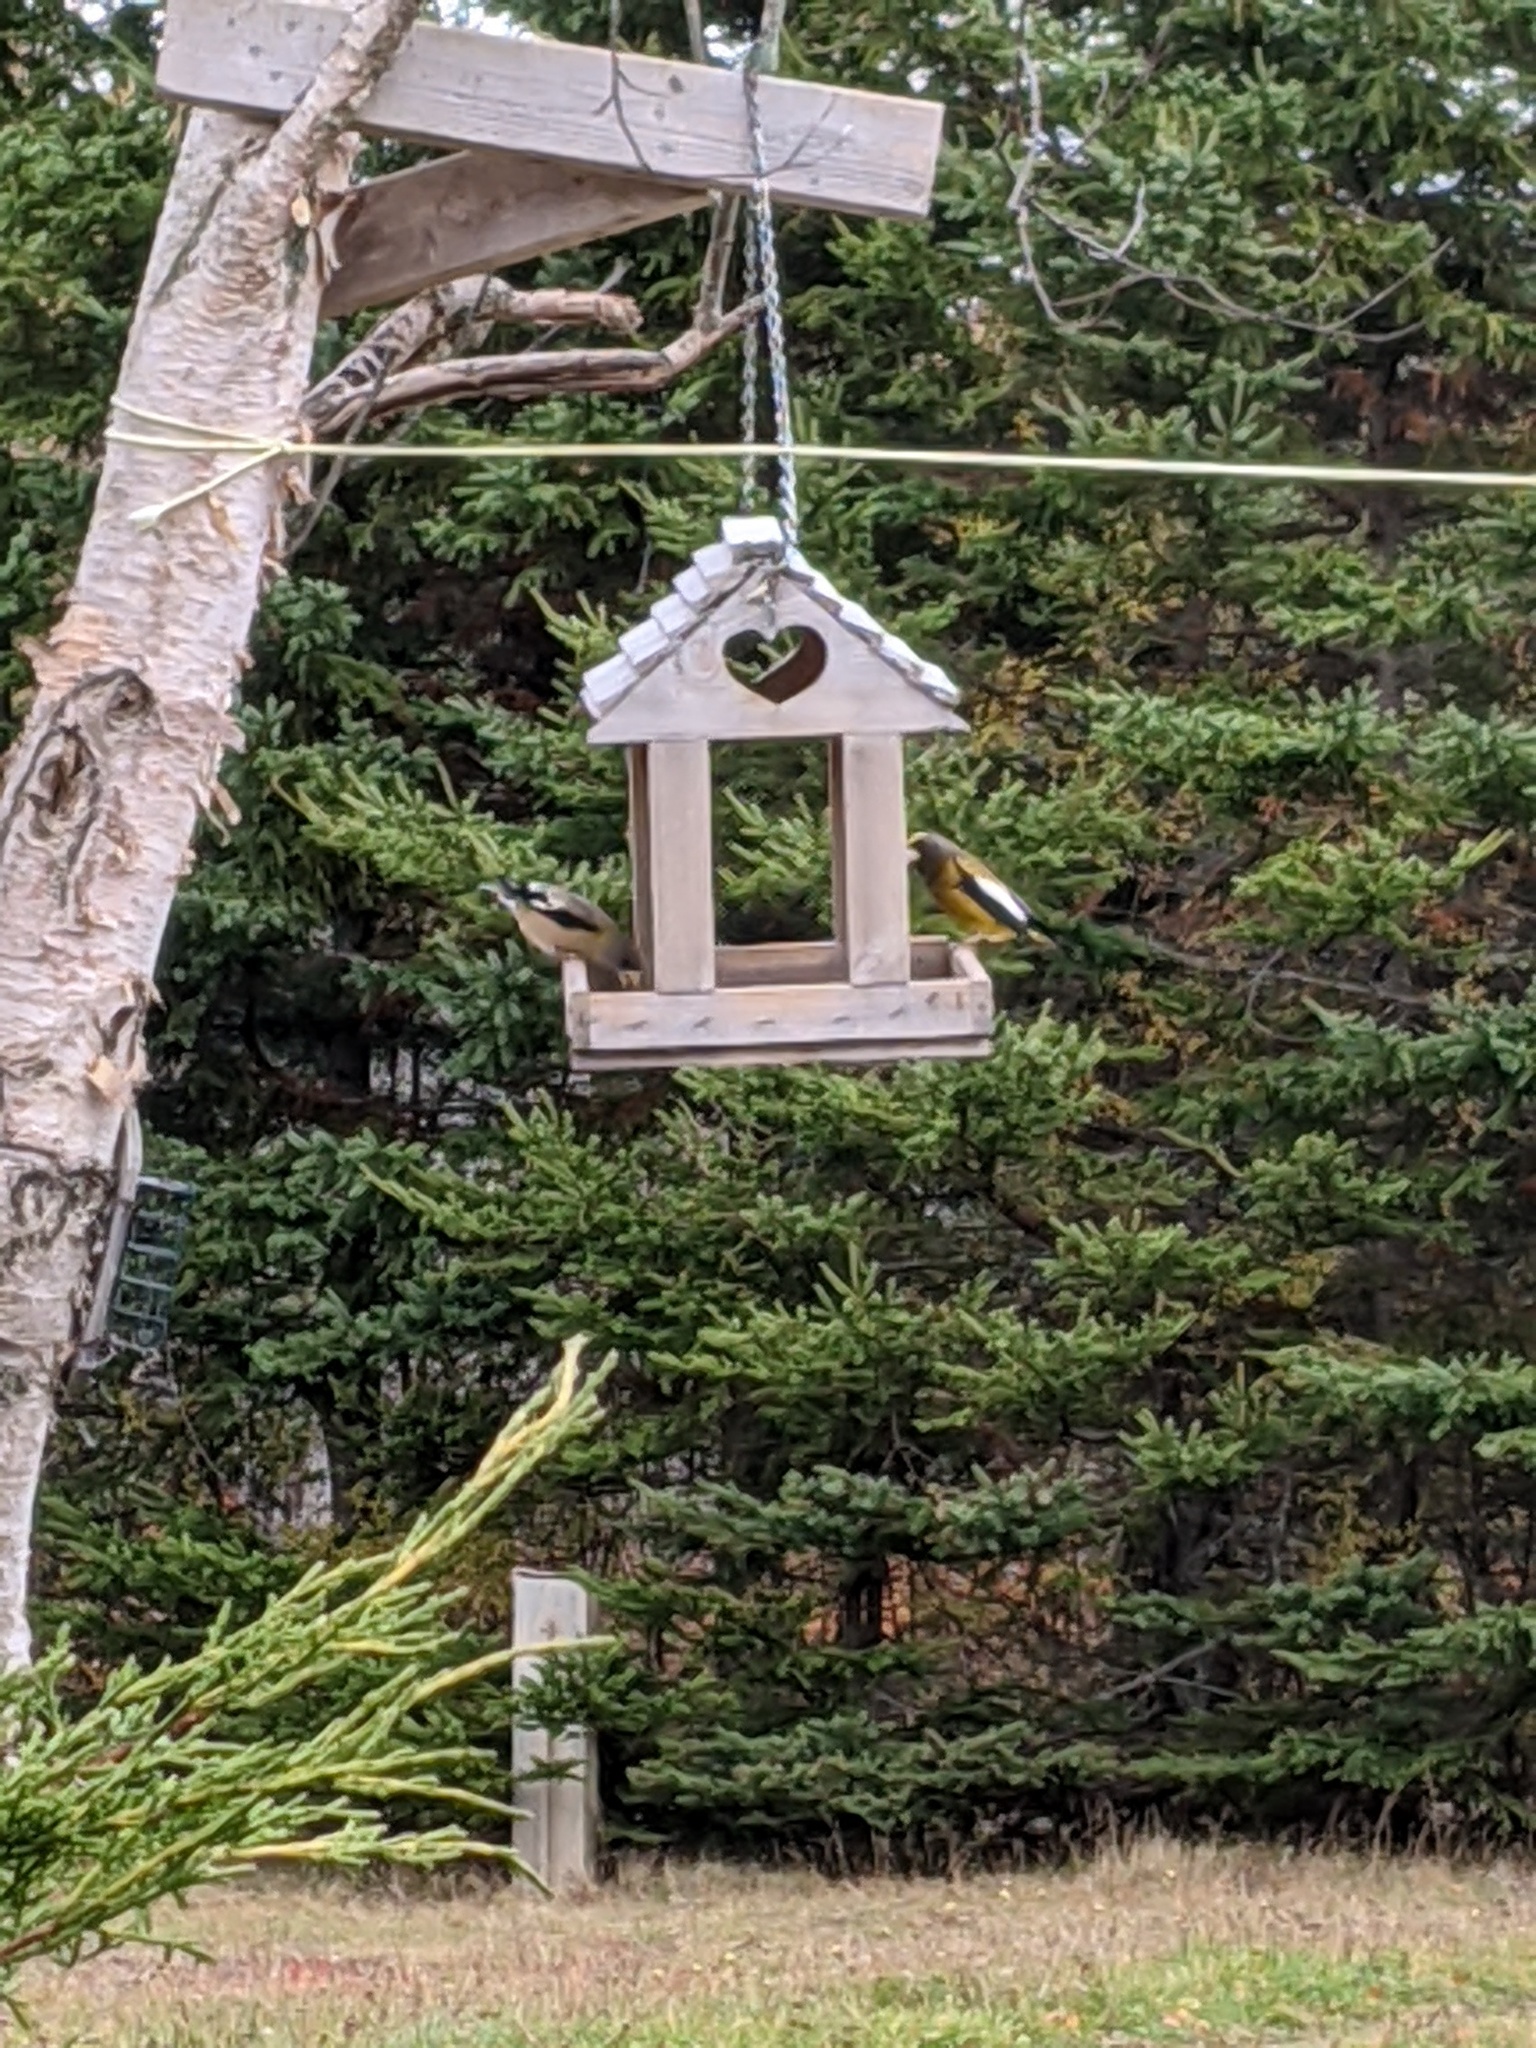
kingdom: Animalia
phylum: Chordata
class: Aves
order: Passeriformes
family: Fringillidae
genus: Hesperiphona
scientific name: Hesperiphona vespertina
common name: Evening grosbeak
